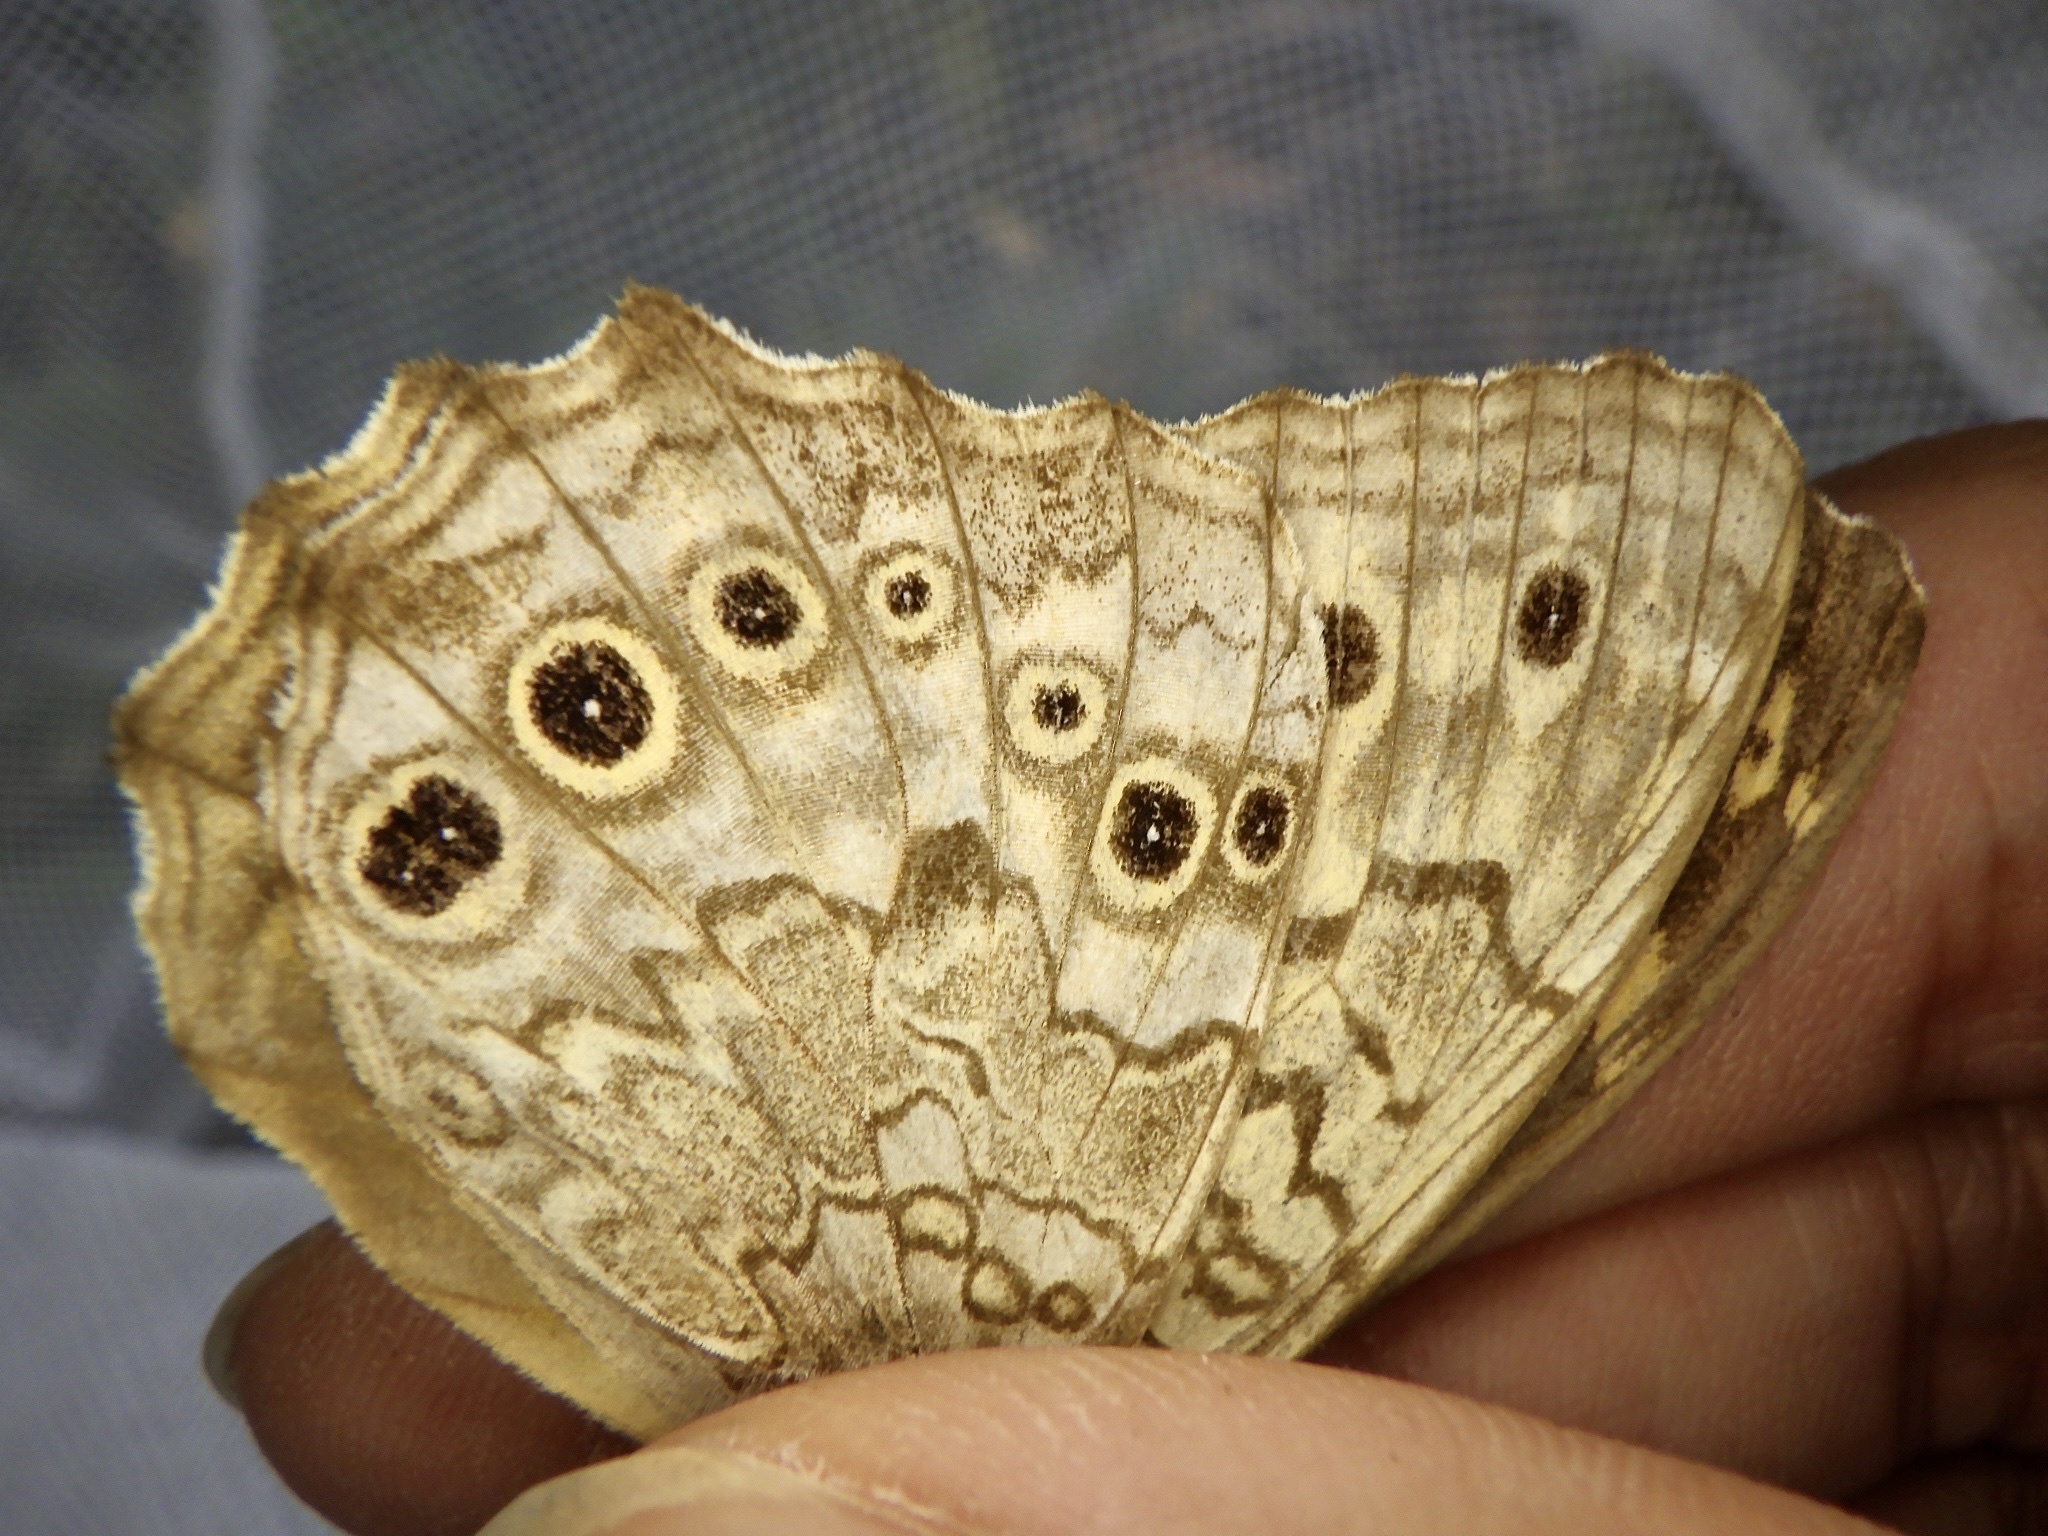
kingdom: Animalia
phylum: Arthropoda
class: Insecta
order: Lepidoptera
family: Nymphalidae
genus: Neope
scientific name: Neope goschkevitschii
